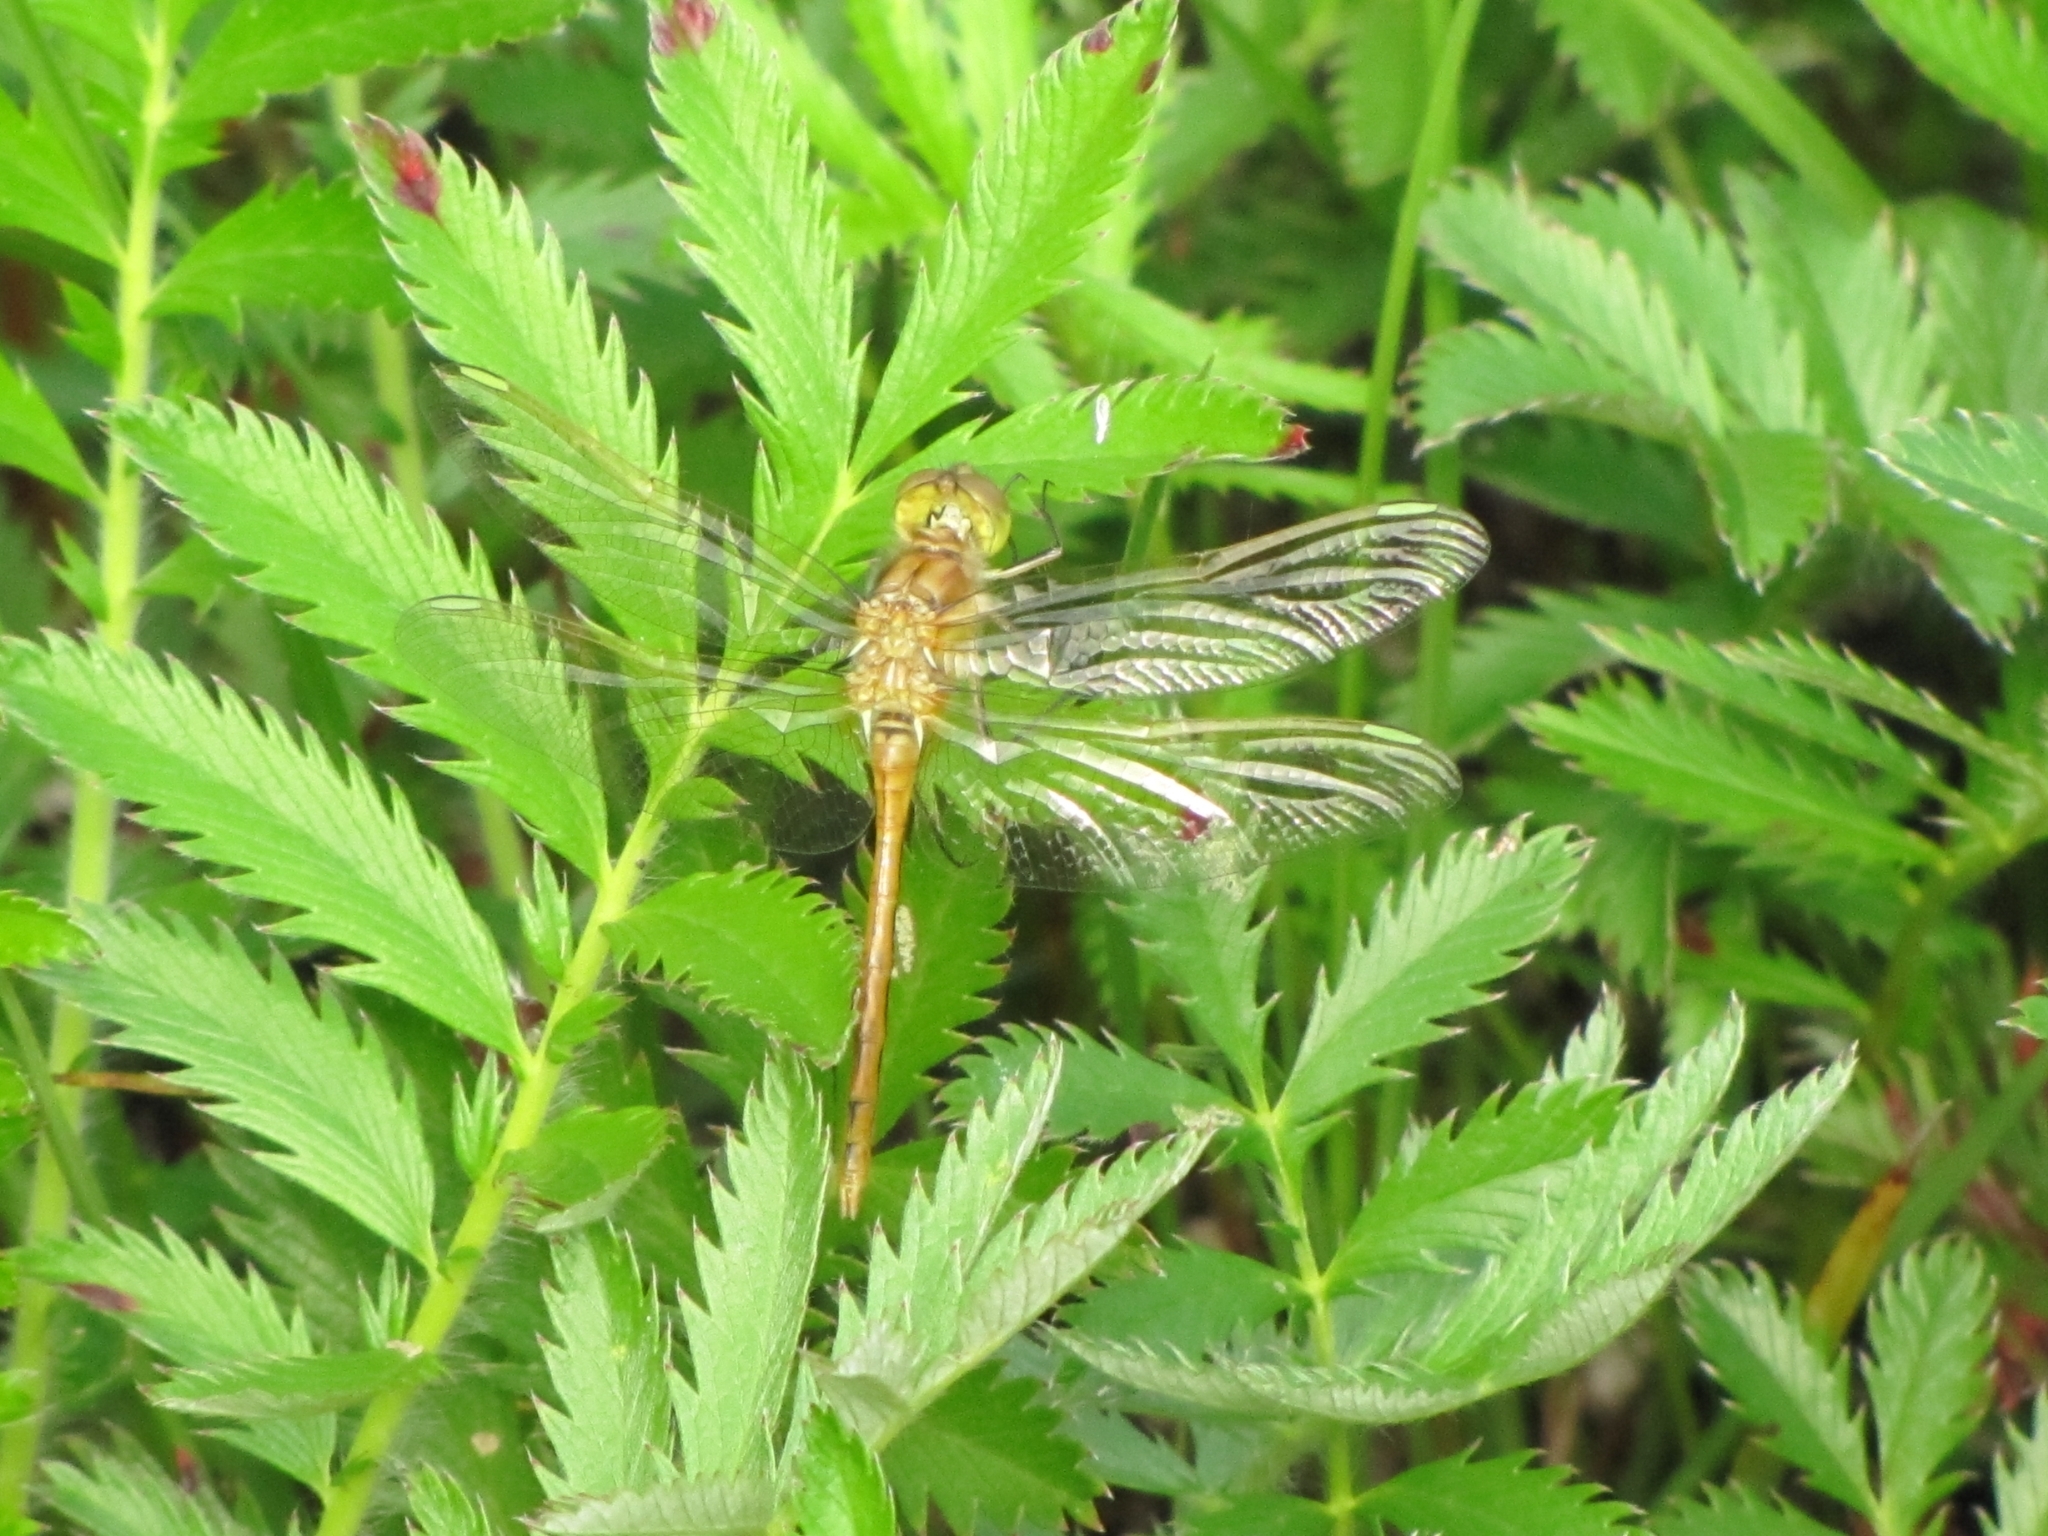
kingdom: Animalia
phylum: Arthropoda
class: Insecta
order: Odonata
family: Libellulidae
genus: Sympetrum
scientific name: Sympetrum costiferum
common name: Saffron-winged meadowhawk
